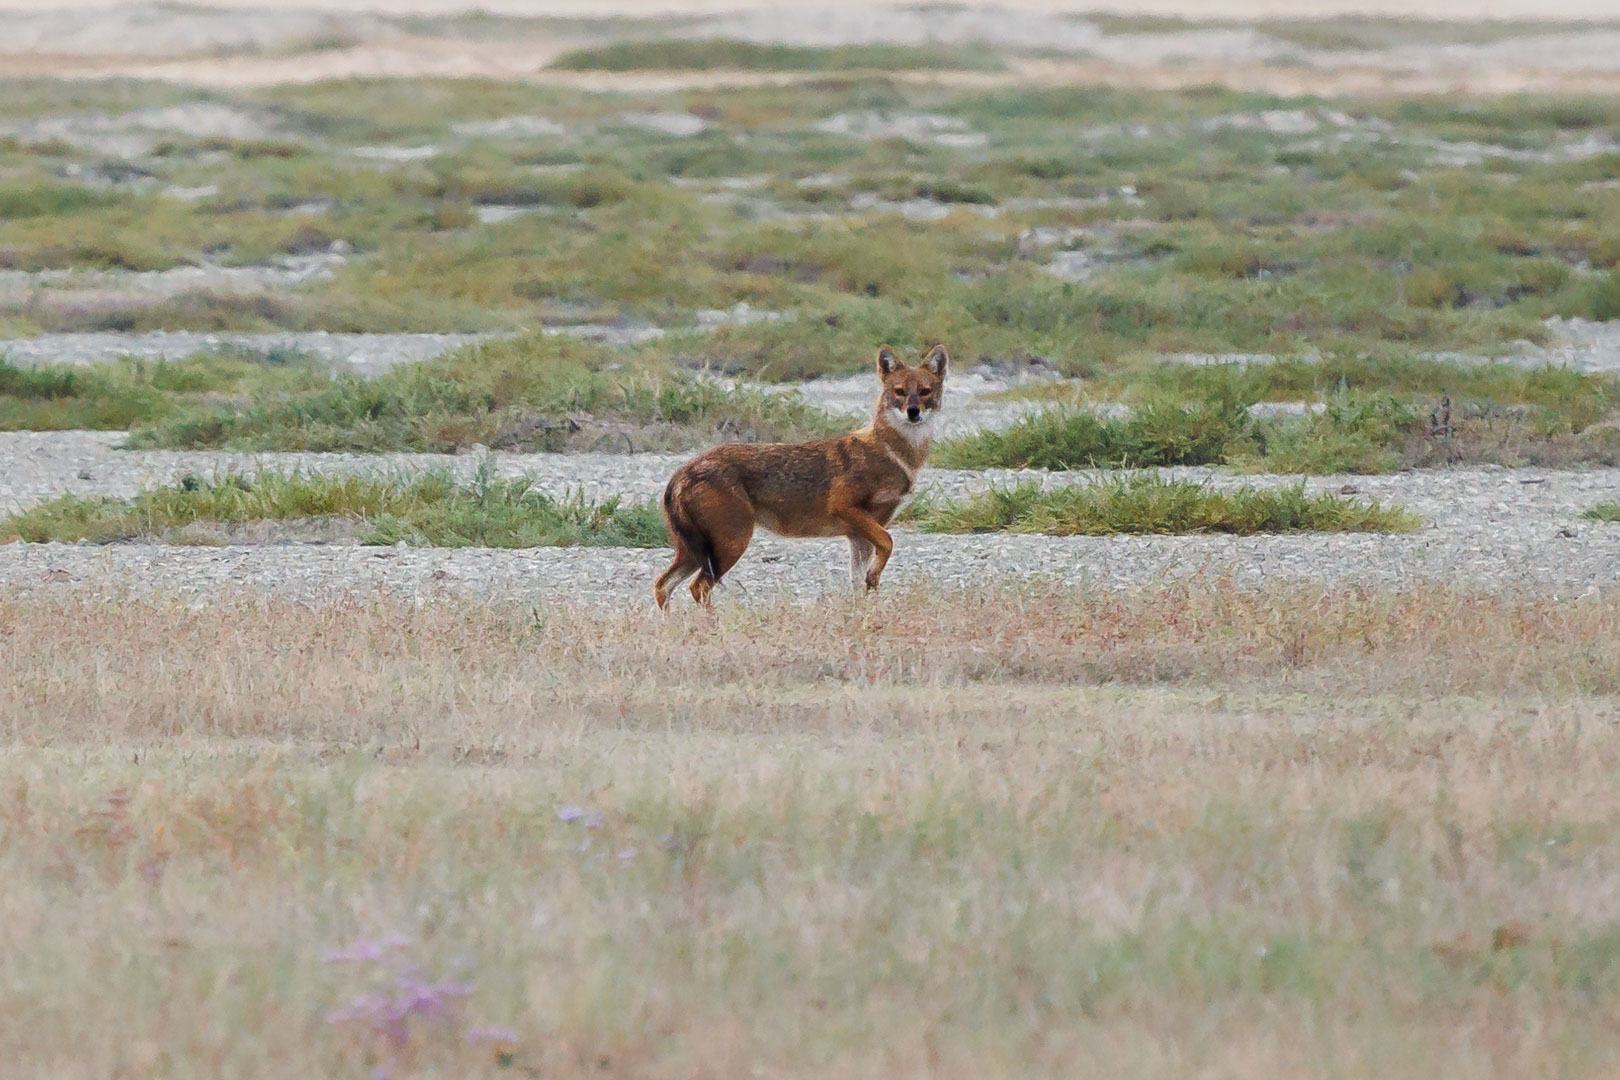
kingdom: Animalia
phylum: Chordata
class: Mammalia
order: Carnivora
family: Canidae
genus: Canis
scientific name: Canis aureus
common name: Golden jackal
